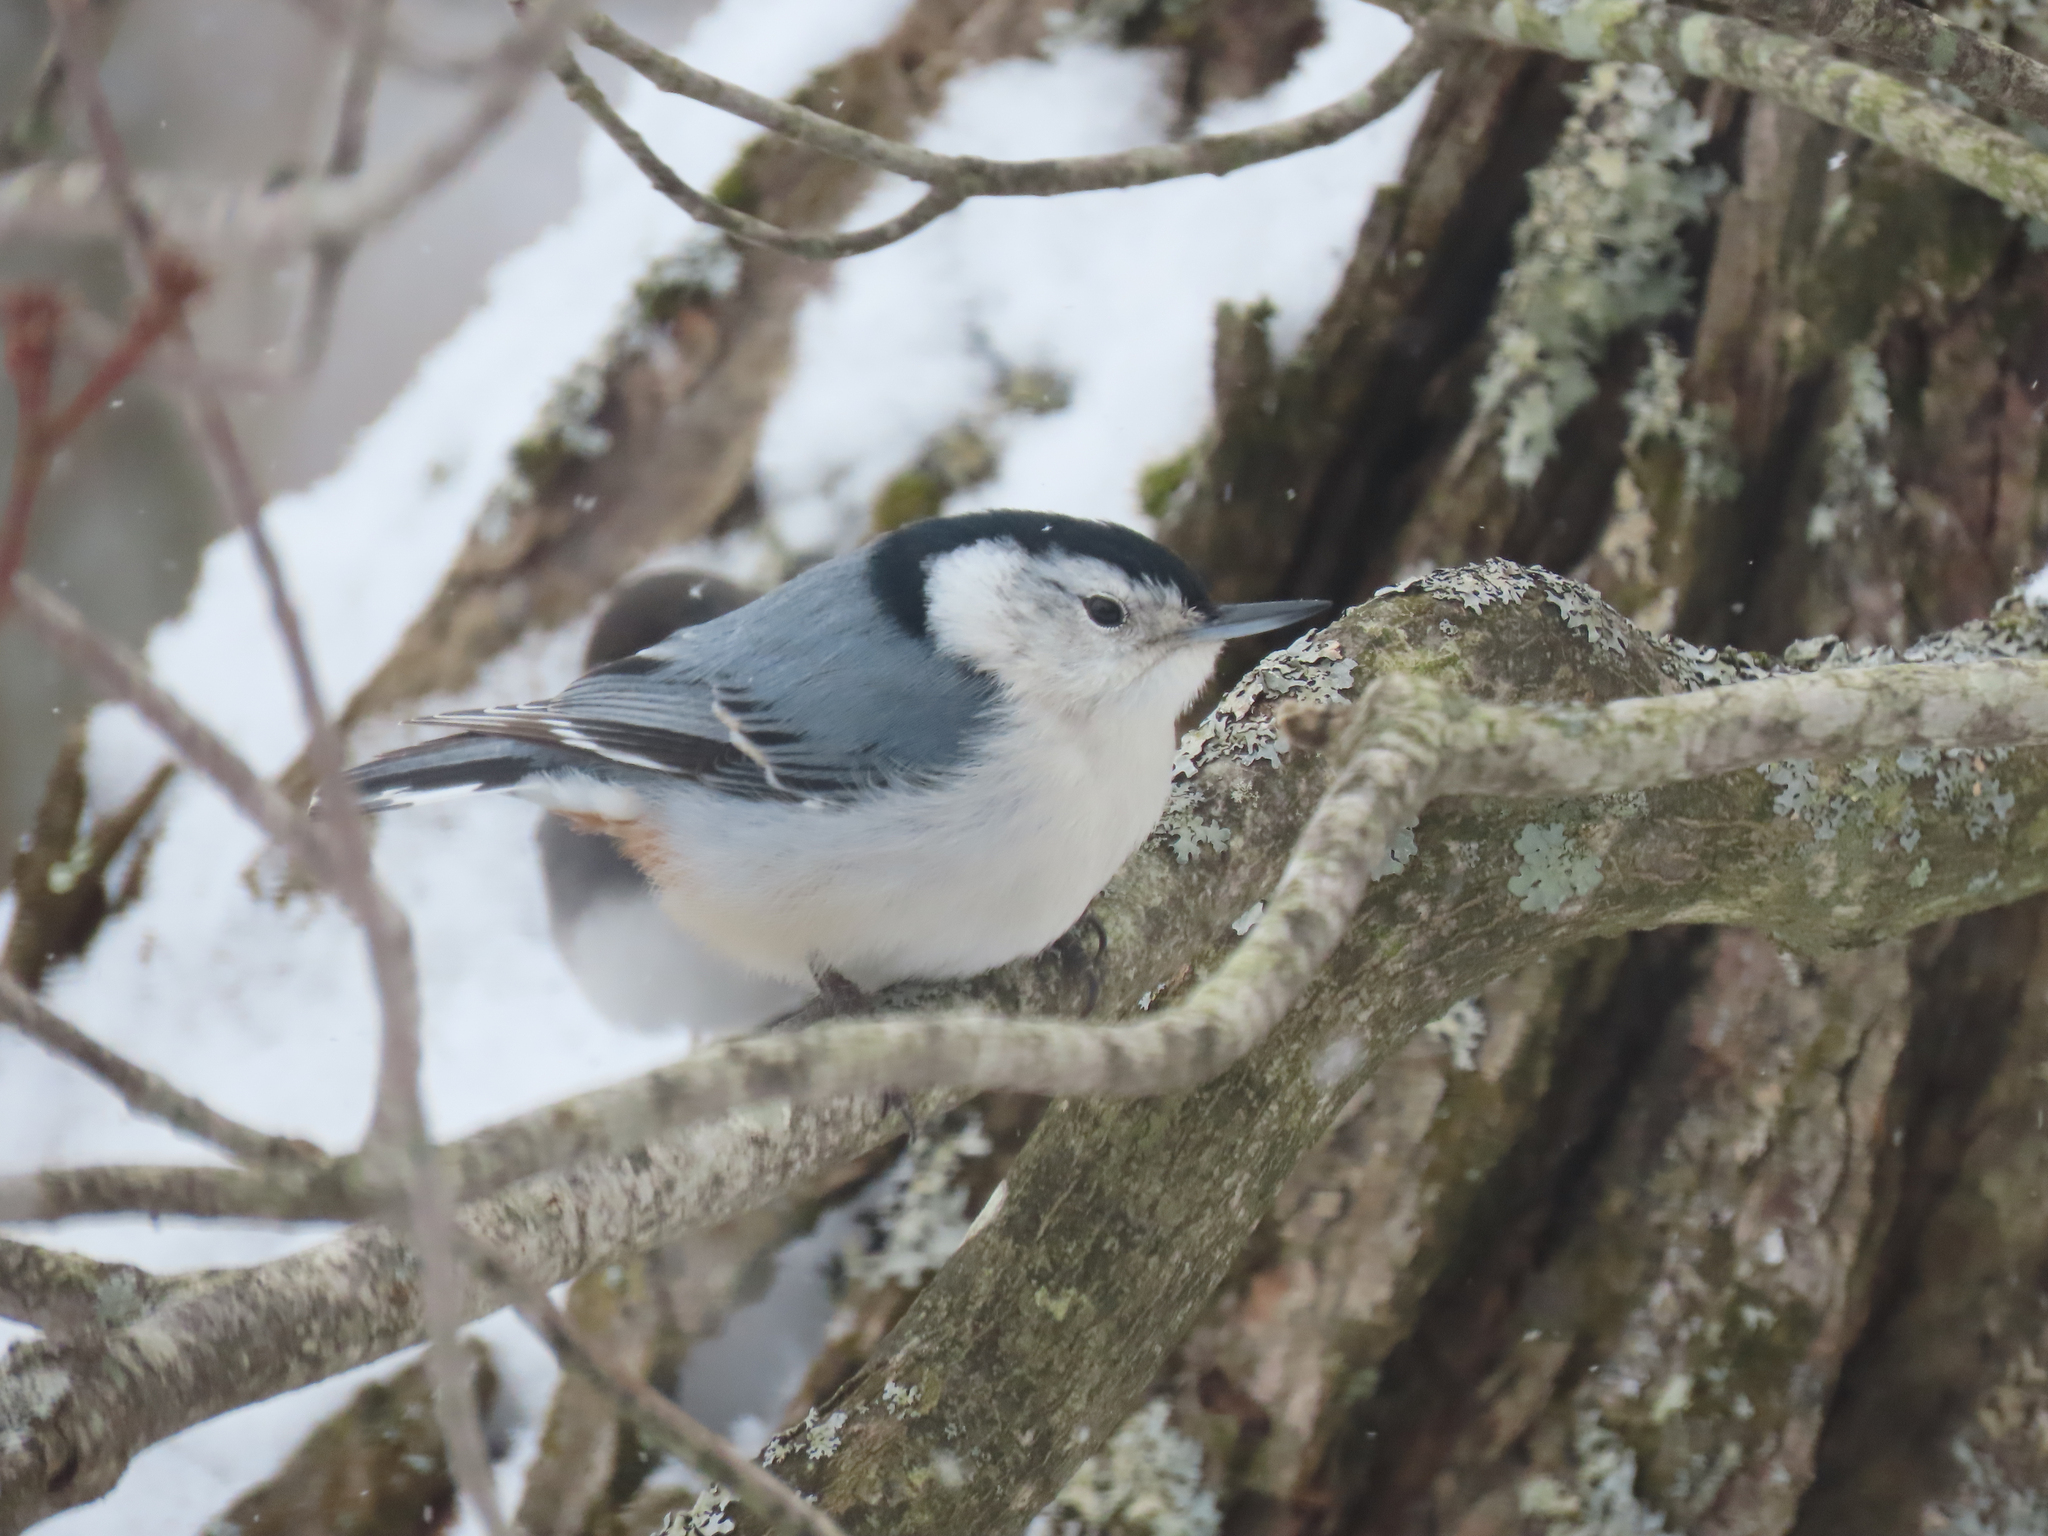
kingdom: Animalia
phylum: Chordata
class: Aves
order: Passeriformes
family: Sittidae
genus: Sitta
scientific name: Sitta carolinensis
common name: White-breasted nuthatch
